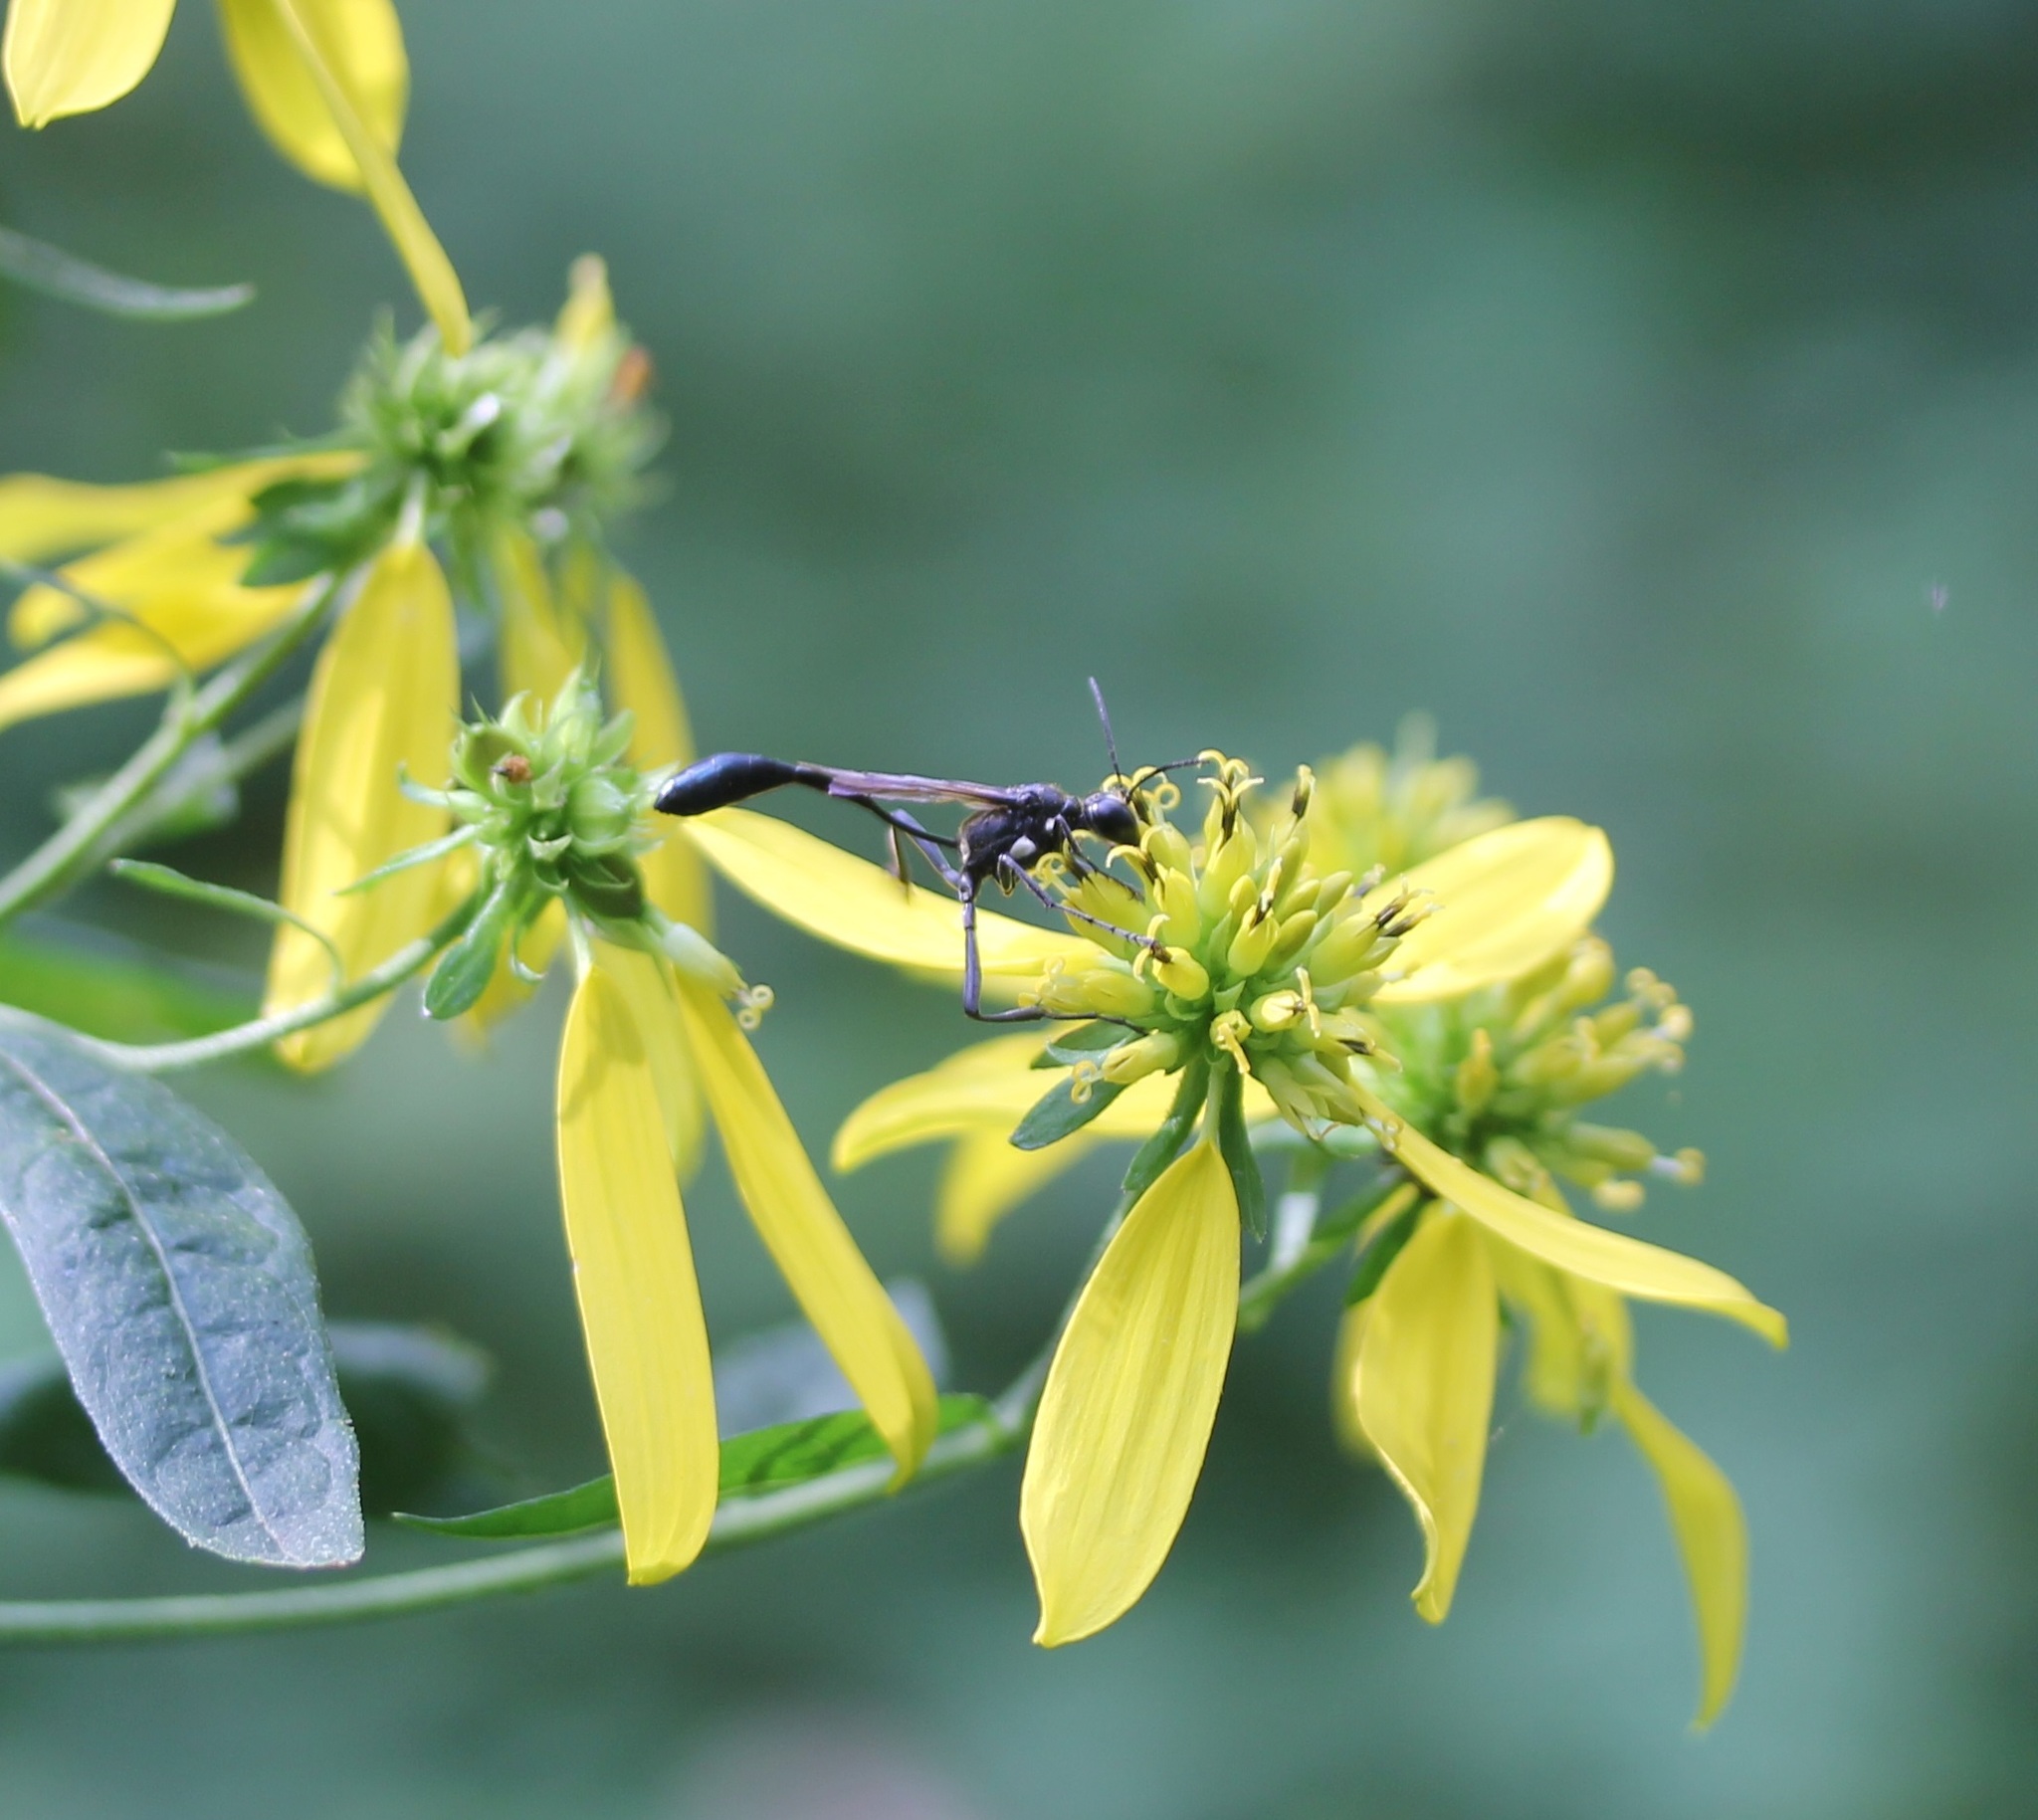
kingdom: Animalia
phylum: Arthropoda
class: Insecta
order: Hymenoptera
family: Sphecidae
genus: Eremnophila
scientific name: Eremnophila aureonotata
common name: Gold-marked thread-waisted wasp
